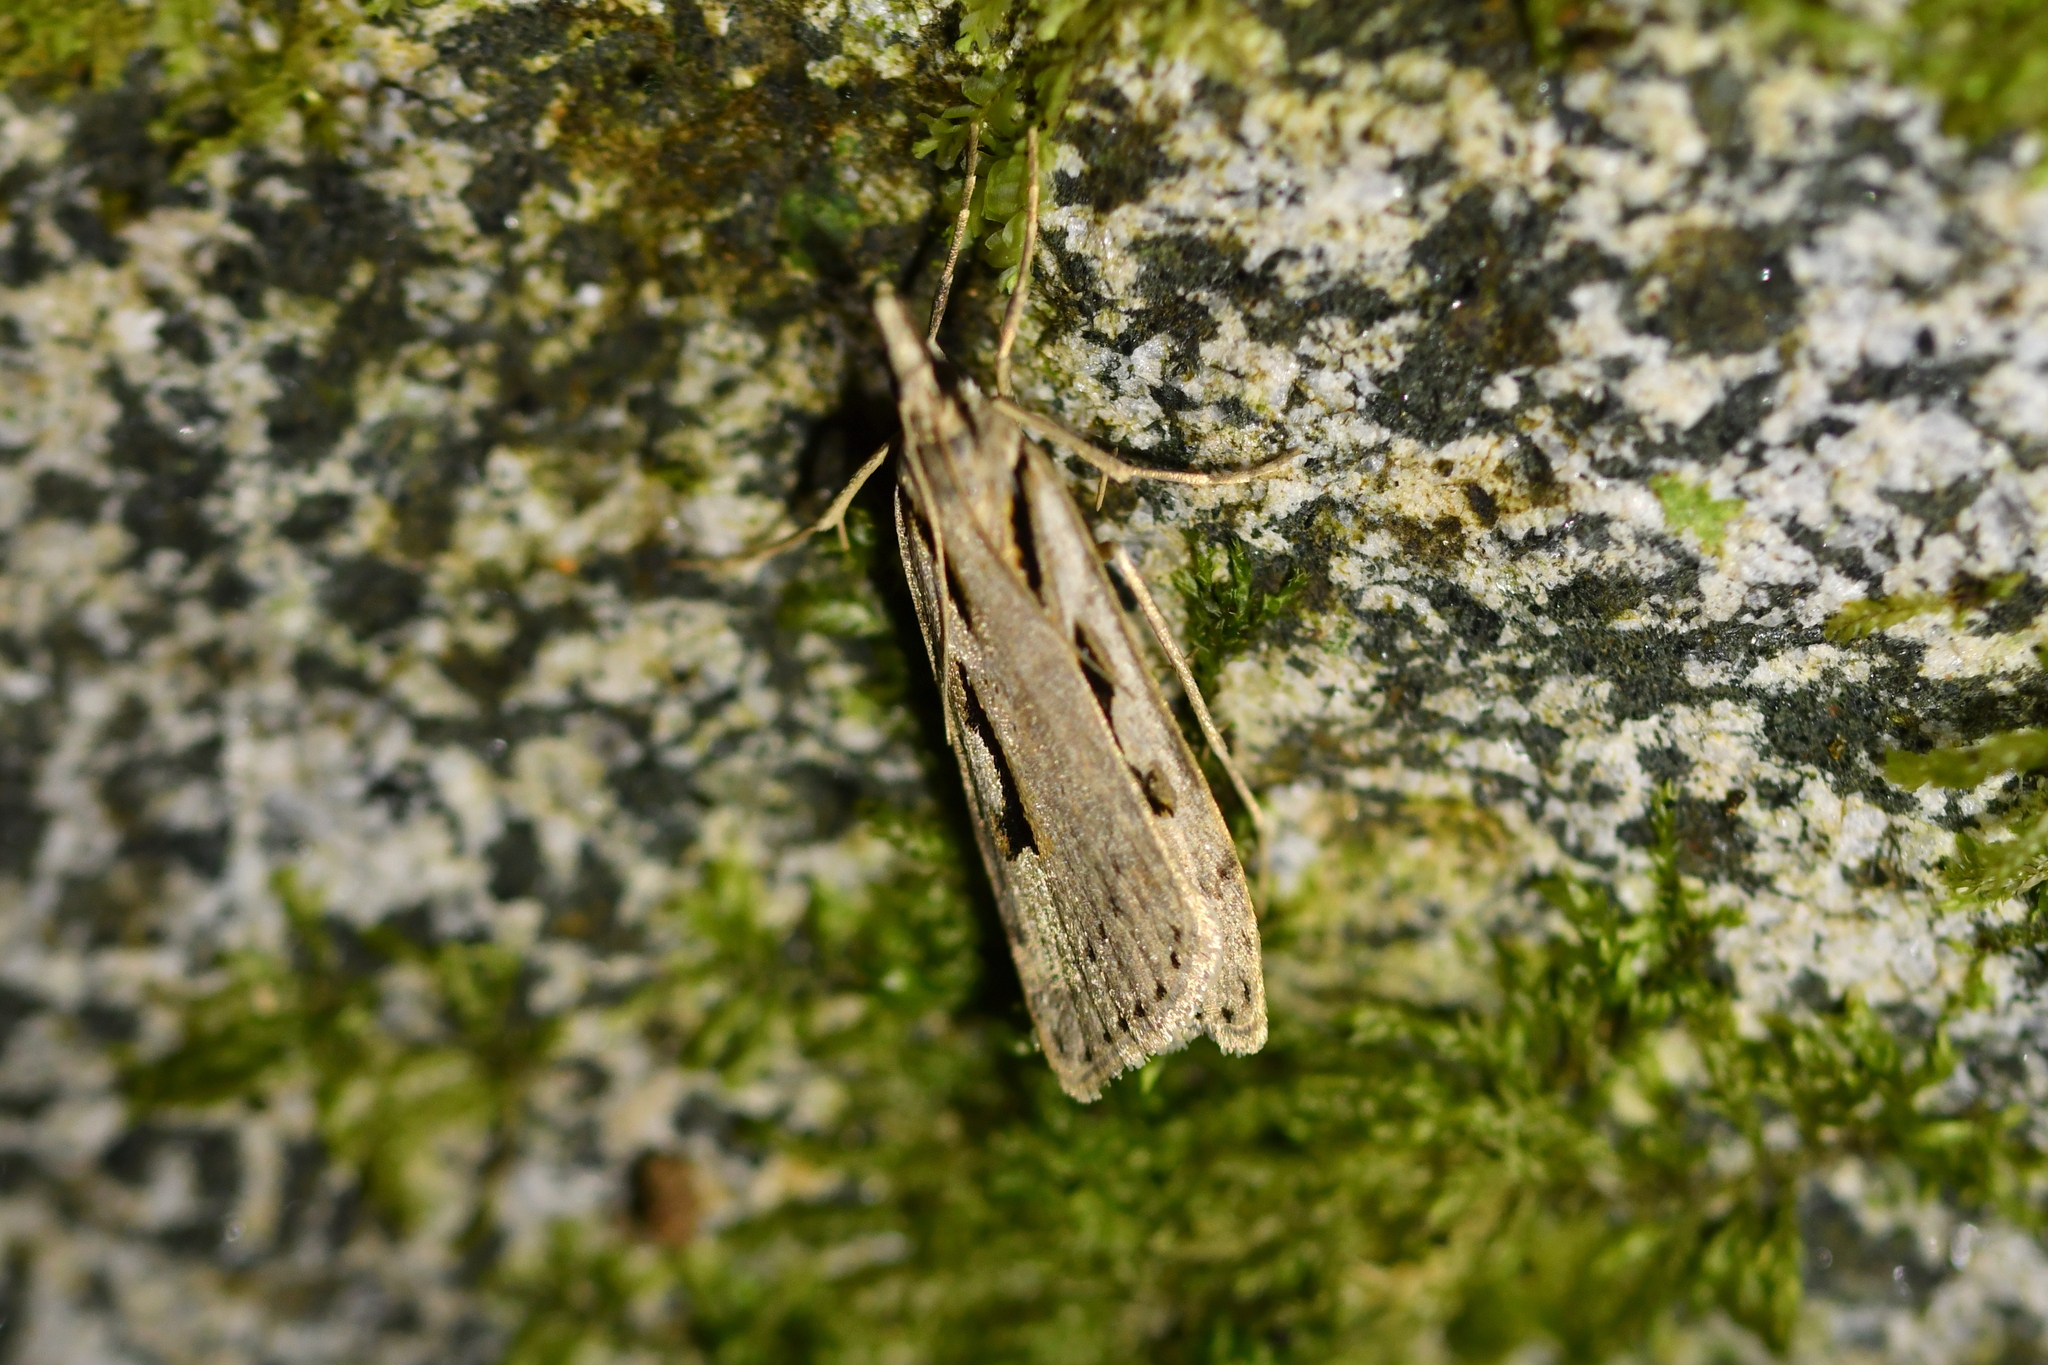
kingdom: Animalia
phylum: Arthropoda
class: Insecta
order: Lepidoptera
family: Crambidae
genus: Scoparia
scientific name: Scoparia rotuellus
